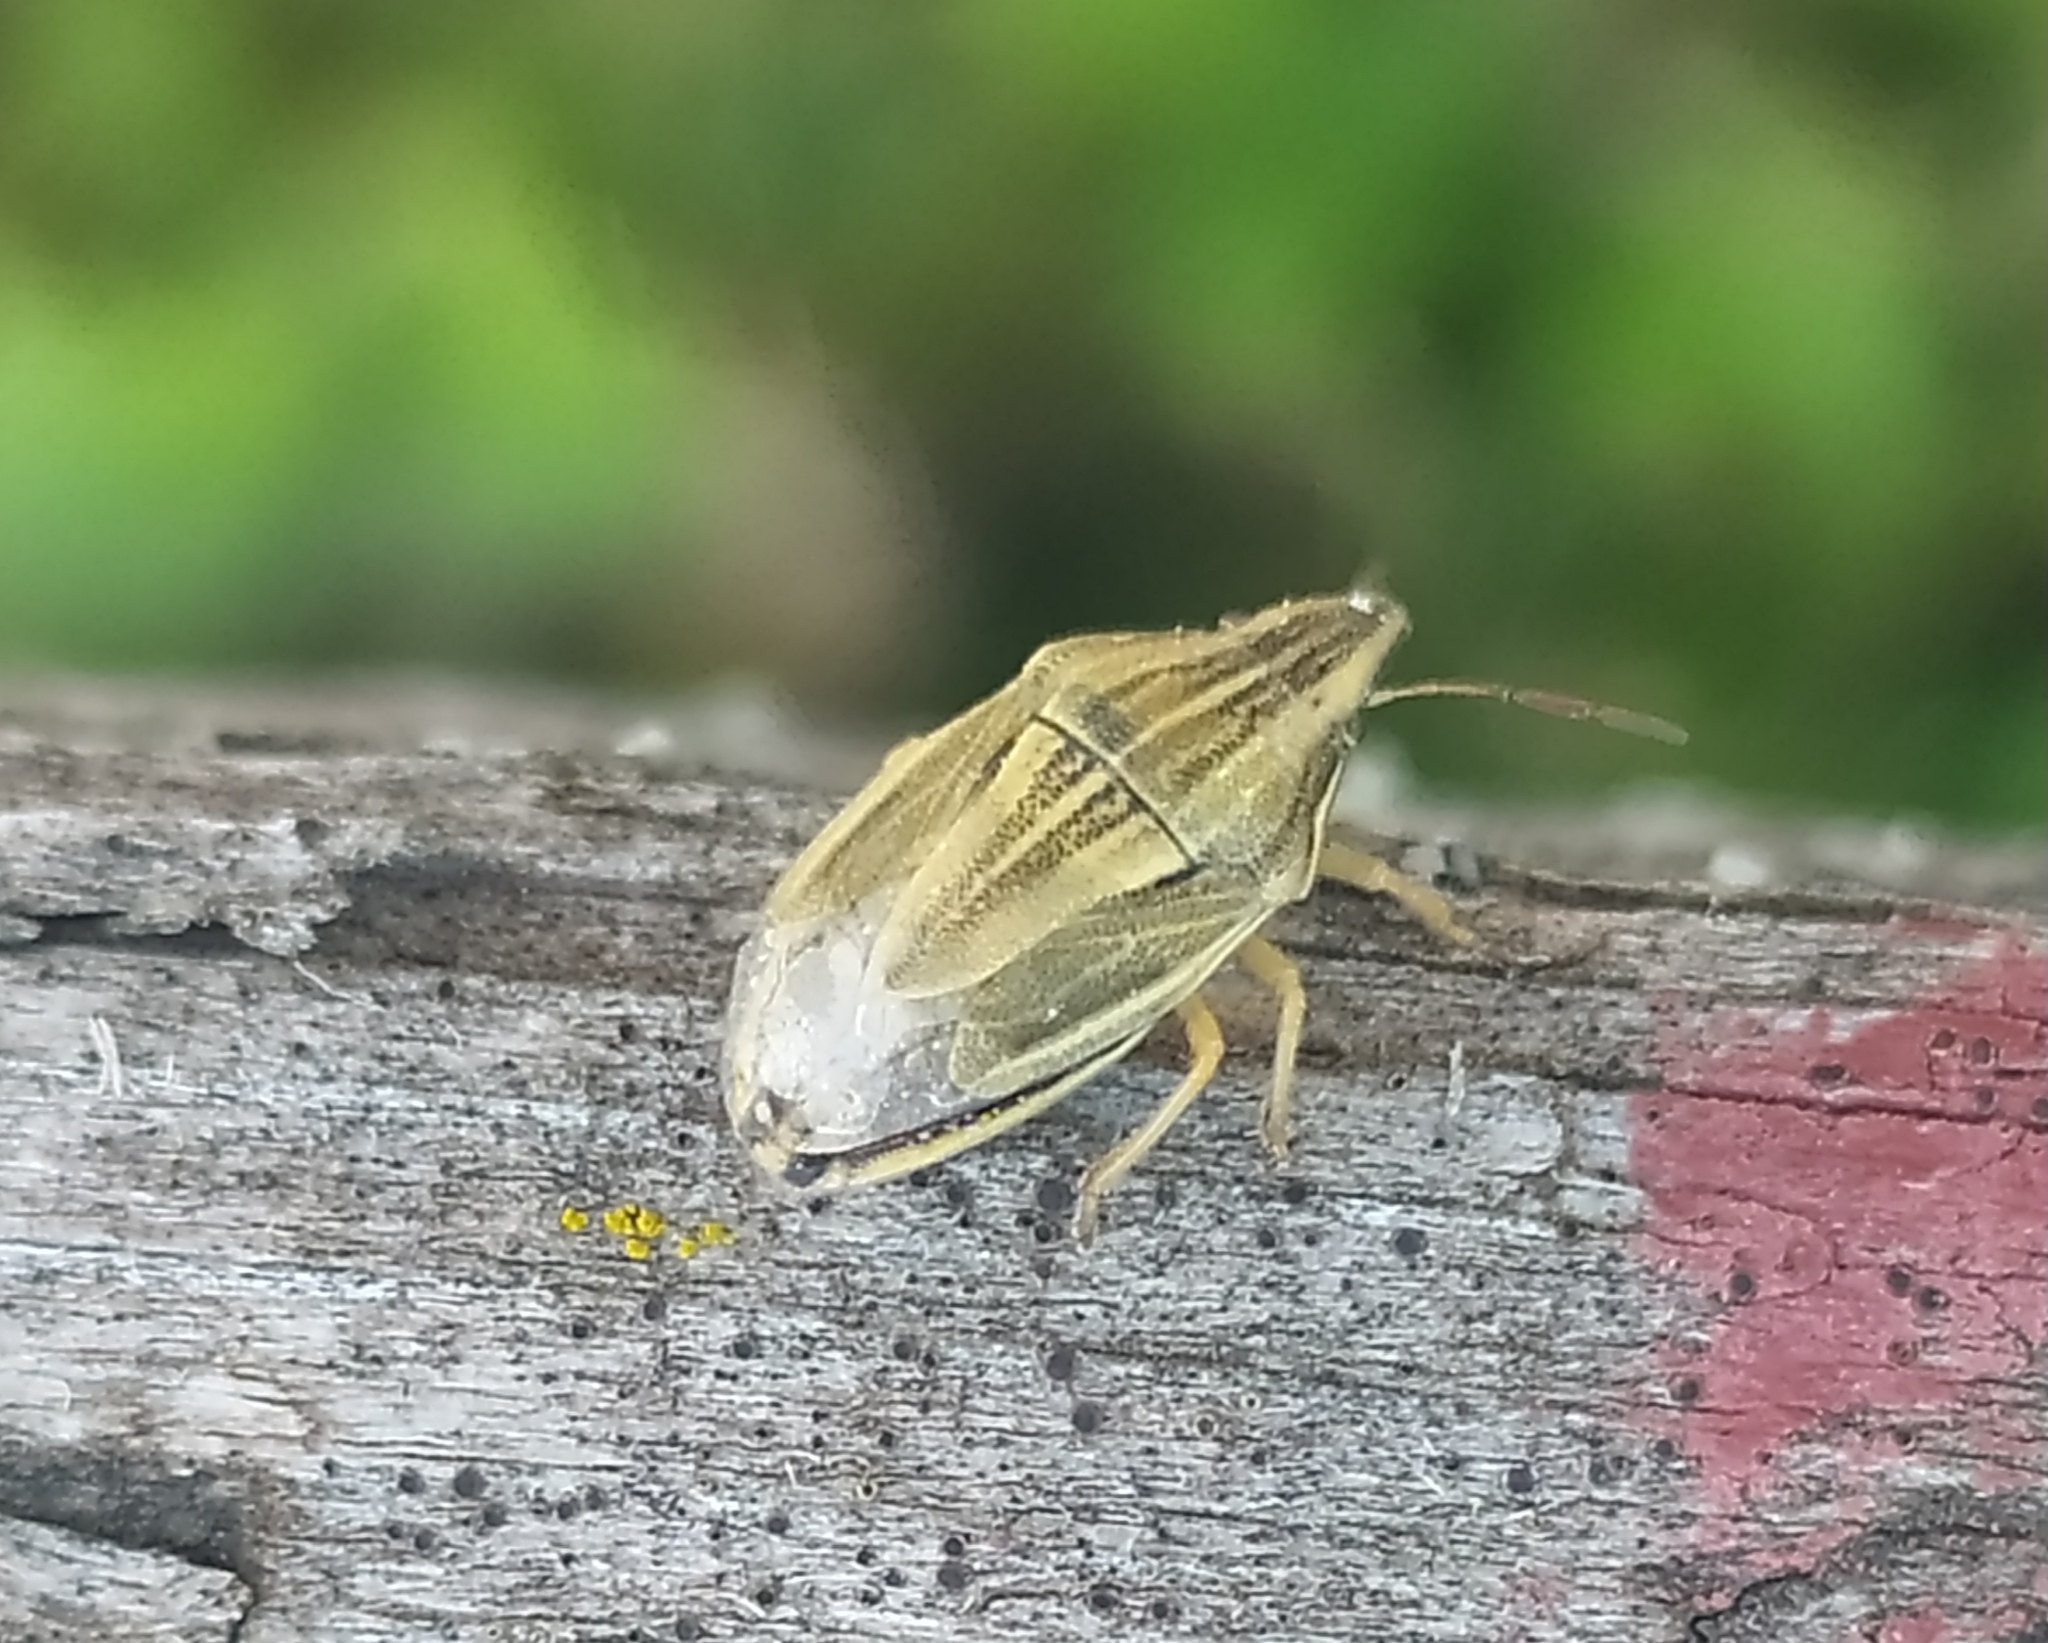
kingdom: Animalia
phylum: Arthropoda
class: Insecta
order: Hemiptera
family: Pentatomidae
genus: Aelia
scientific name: Aelia acuminata
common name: Bishop's mitre
